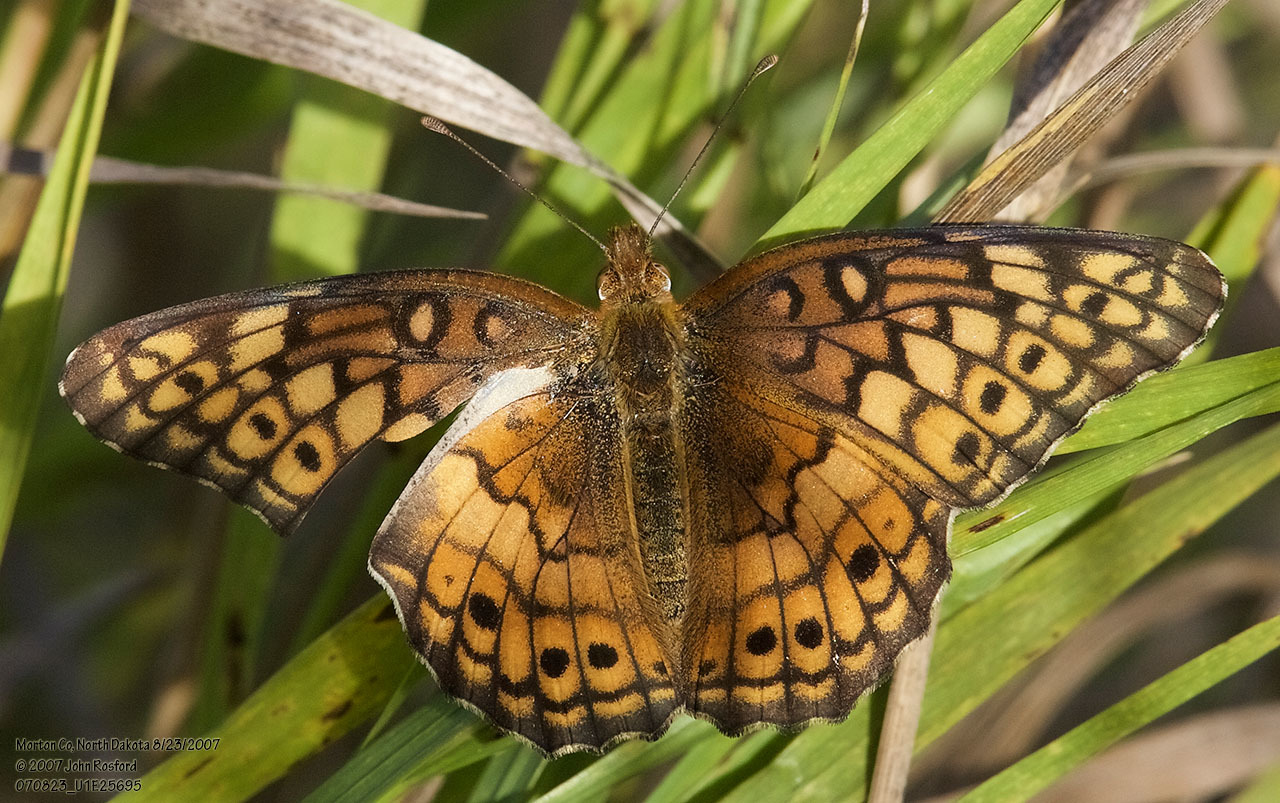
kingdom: Animalia
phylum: Arthropoda
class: Insecta
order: Lepidoptera
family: Nymphalidae
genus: Euptoieta
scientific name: Euptoieta claudia
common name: Variegated fritillary
